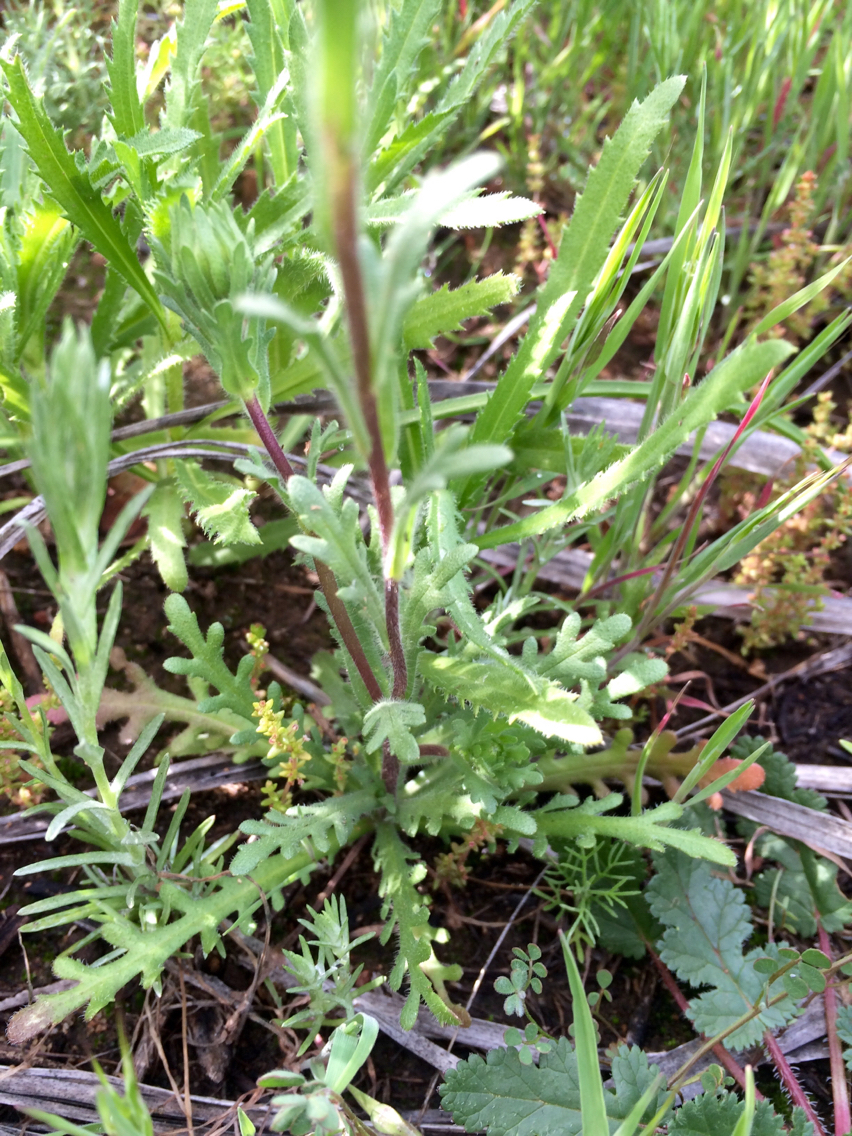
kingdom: Plantae
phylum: Tracheophyta
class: Magnoliopsida
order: Asterales
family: Asteraceae
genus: Layia
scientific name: Layia platyglossa
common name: Tidy-tips
